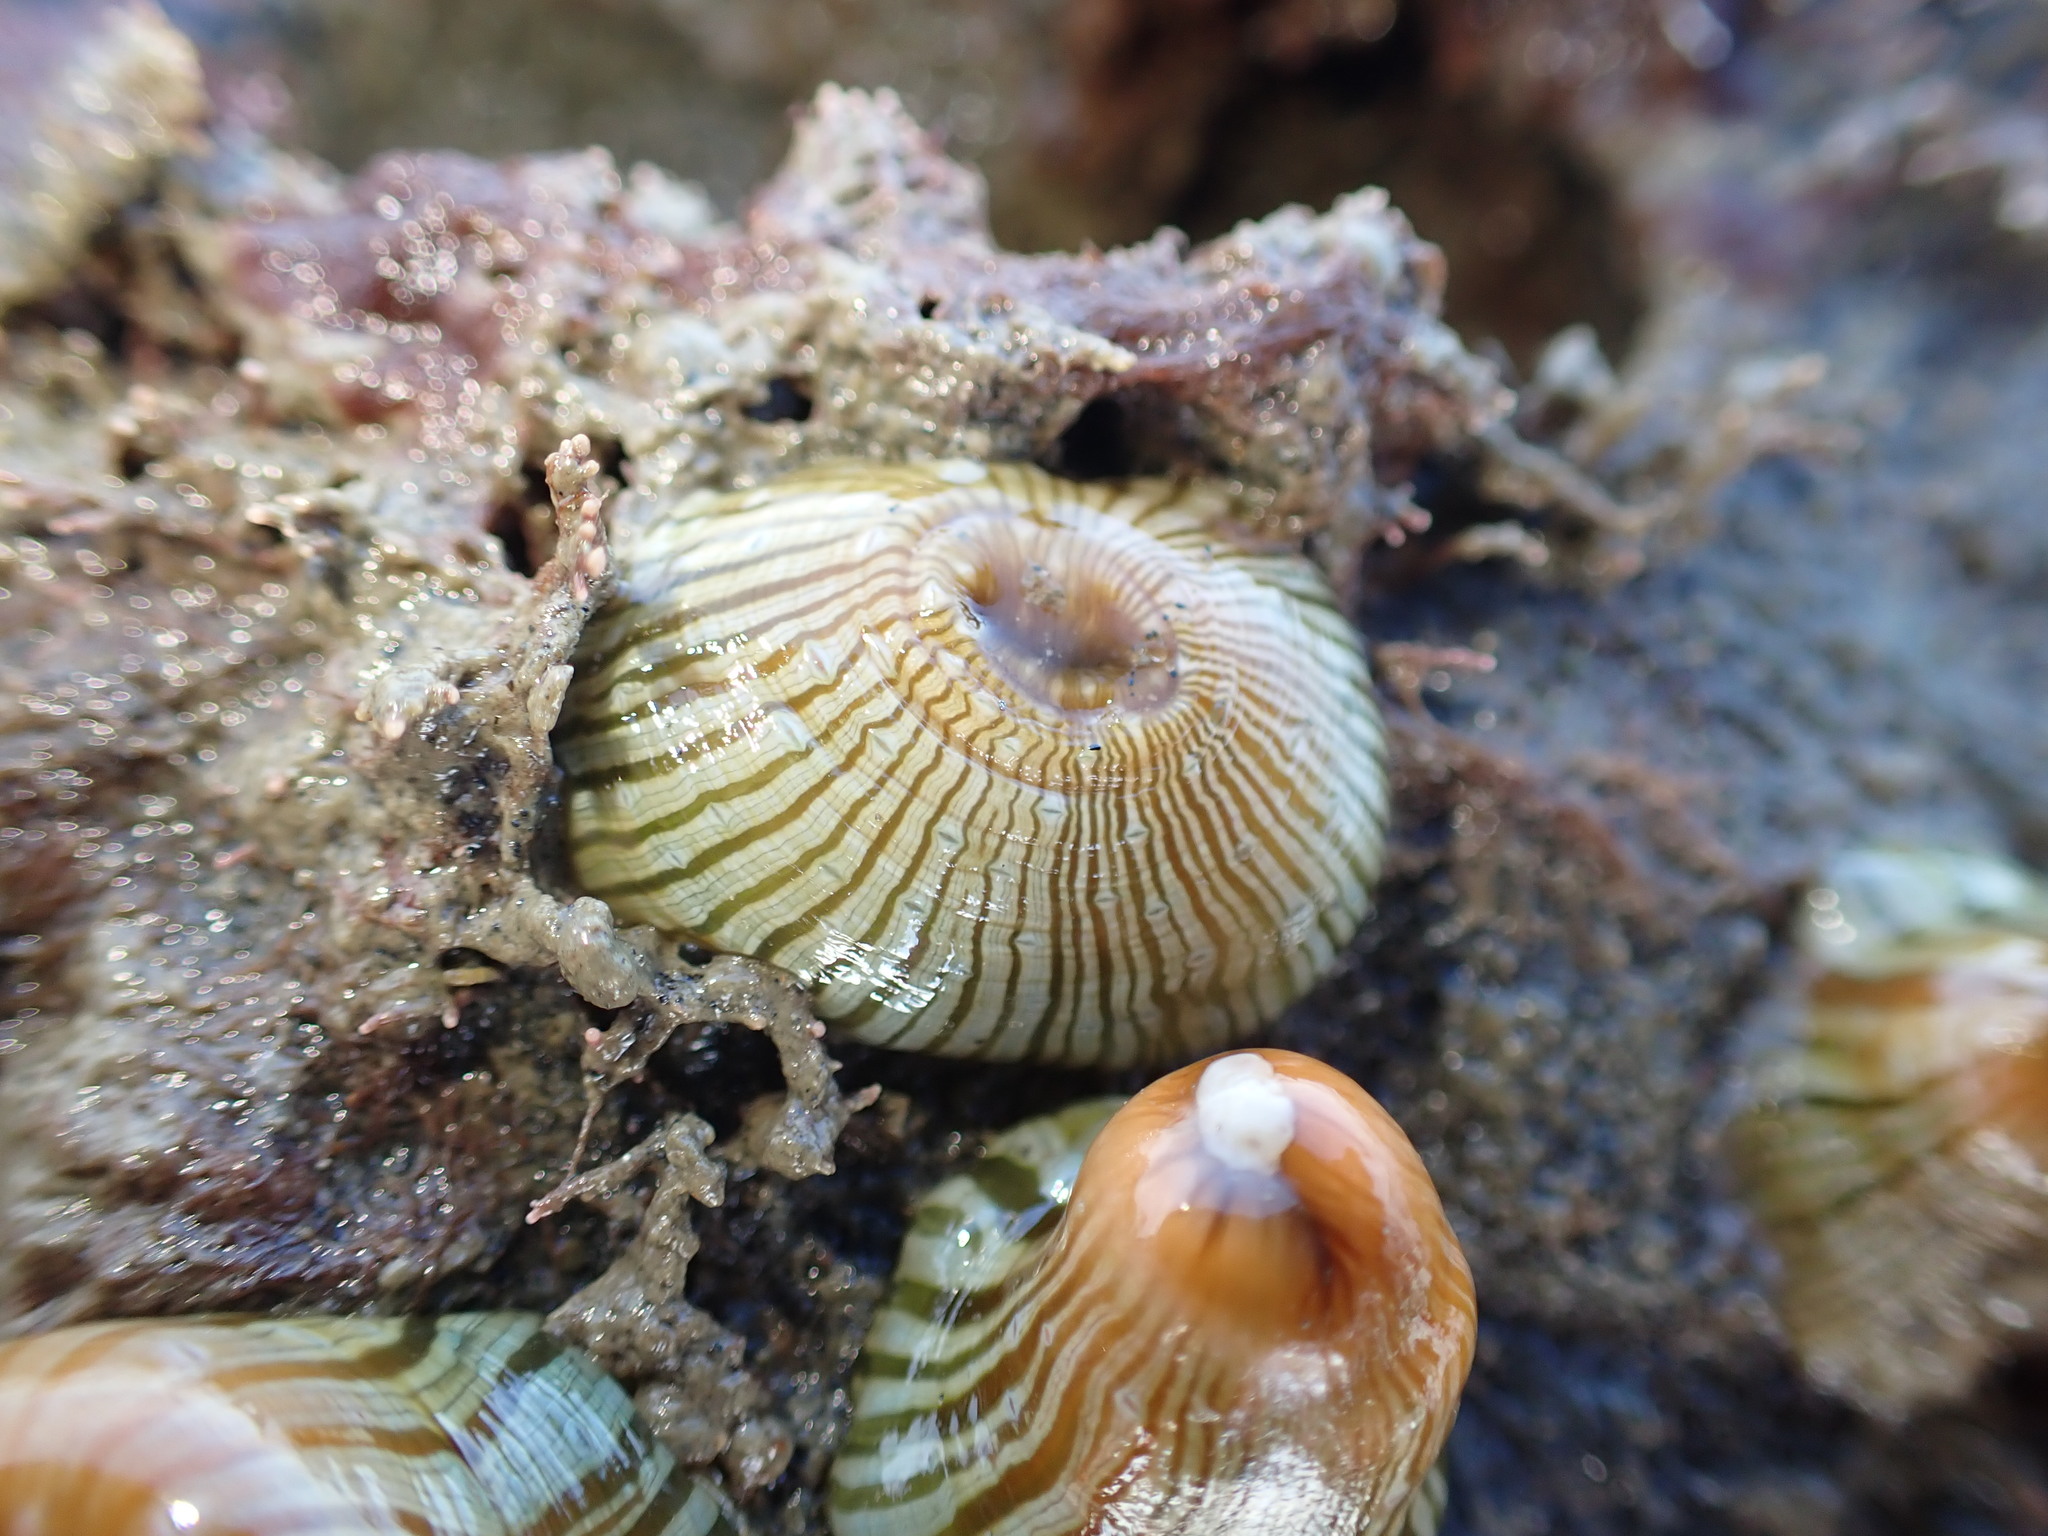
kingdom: Animalia
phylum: Cnidaria
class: Anthozoa
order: Actiniaria
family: Sagartiidae
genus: Anthothoe
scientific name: Anthothoe albocincta
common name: Orange striped anemone
